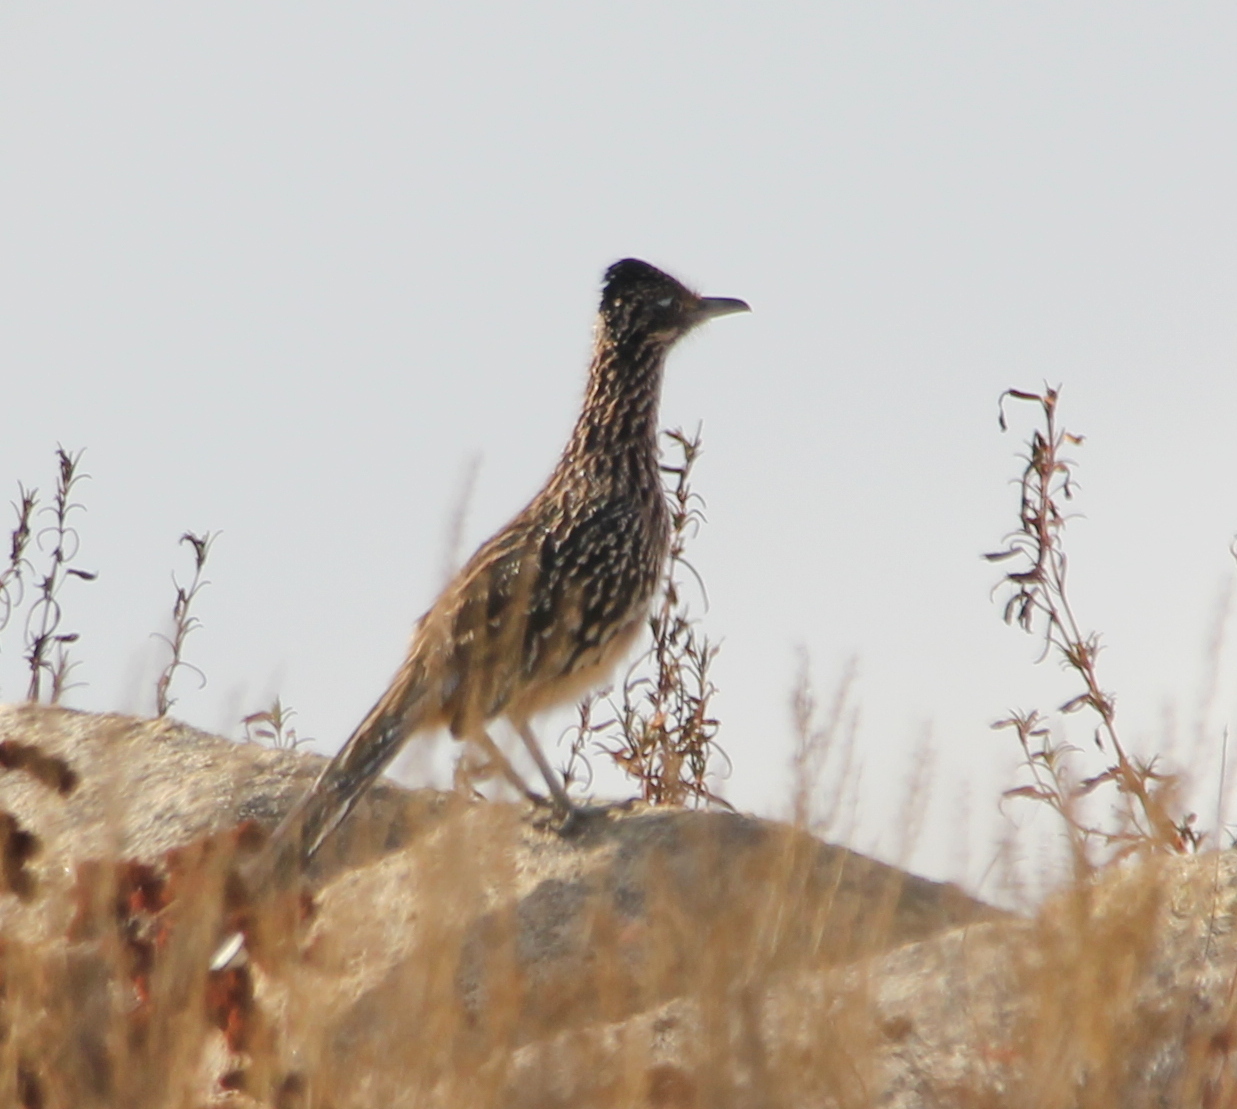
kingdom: Animalia
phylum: Chordata
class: Aves
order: Cuculiformes
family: Cuculidae
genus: Geococcyx
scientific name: Geococcyx californianus
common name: Greater roadrunner
